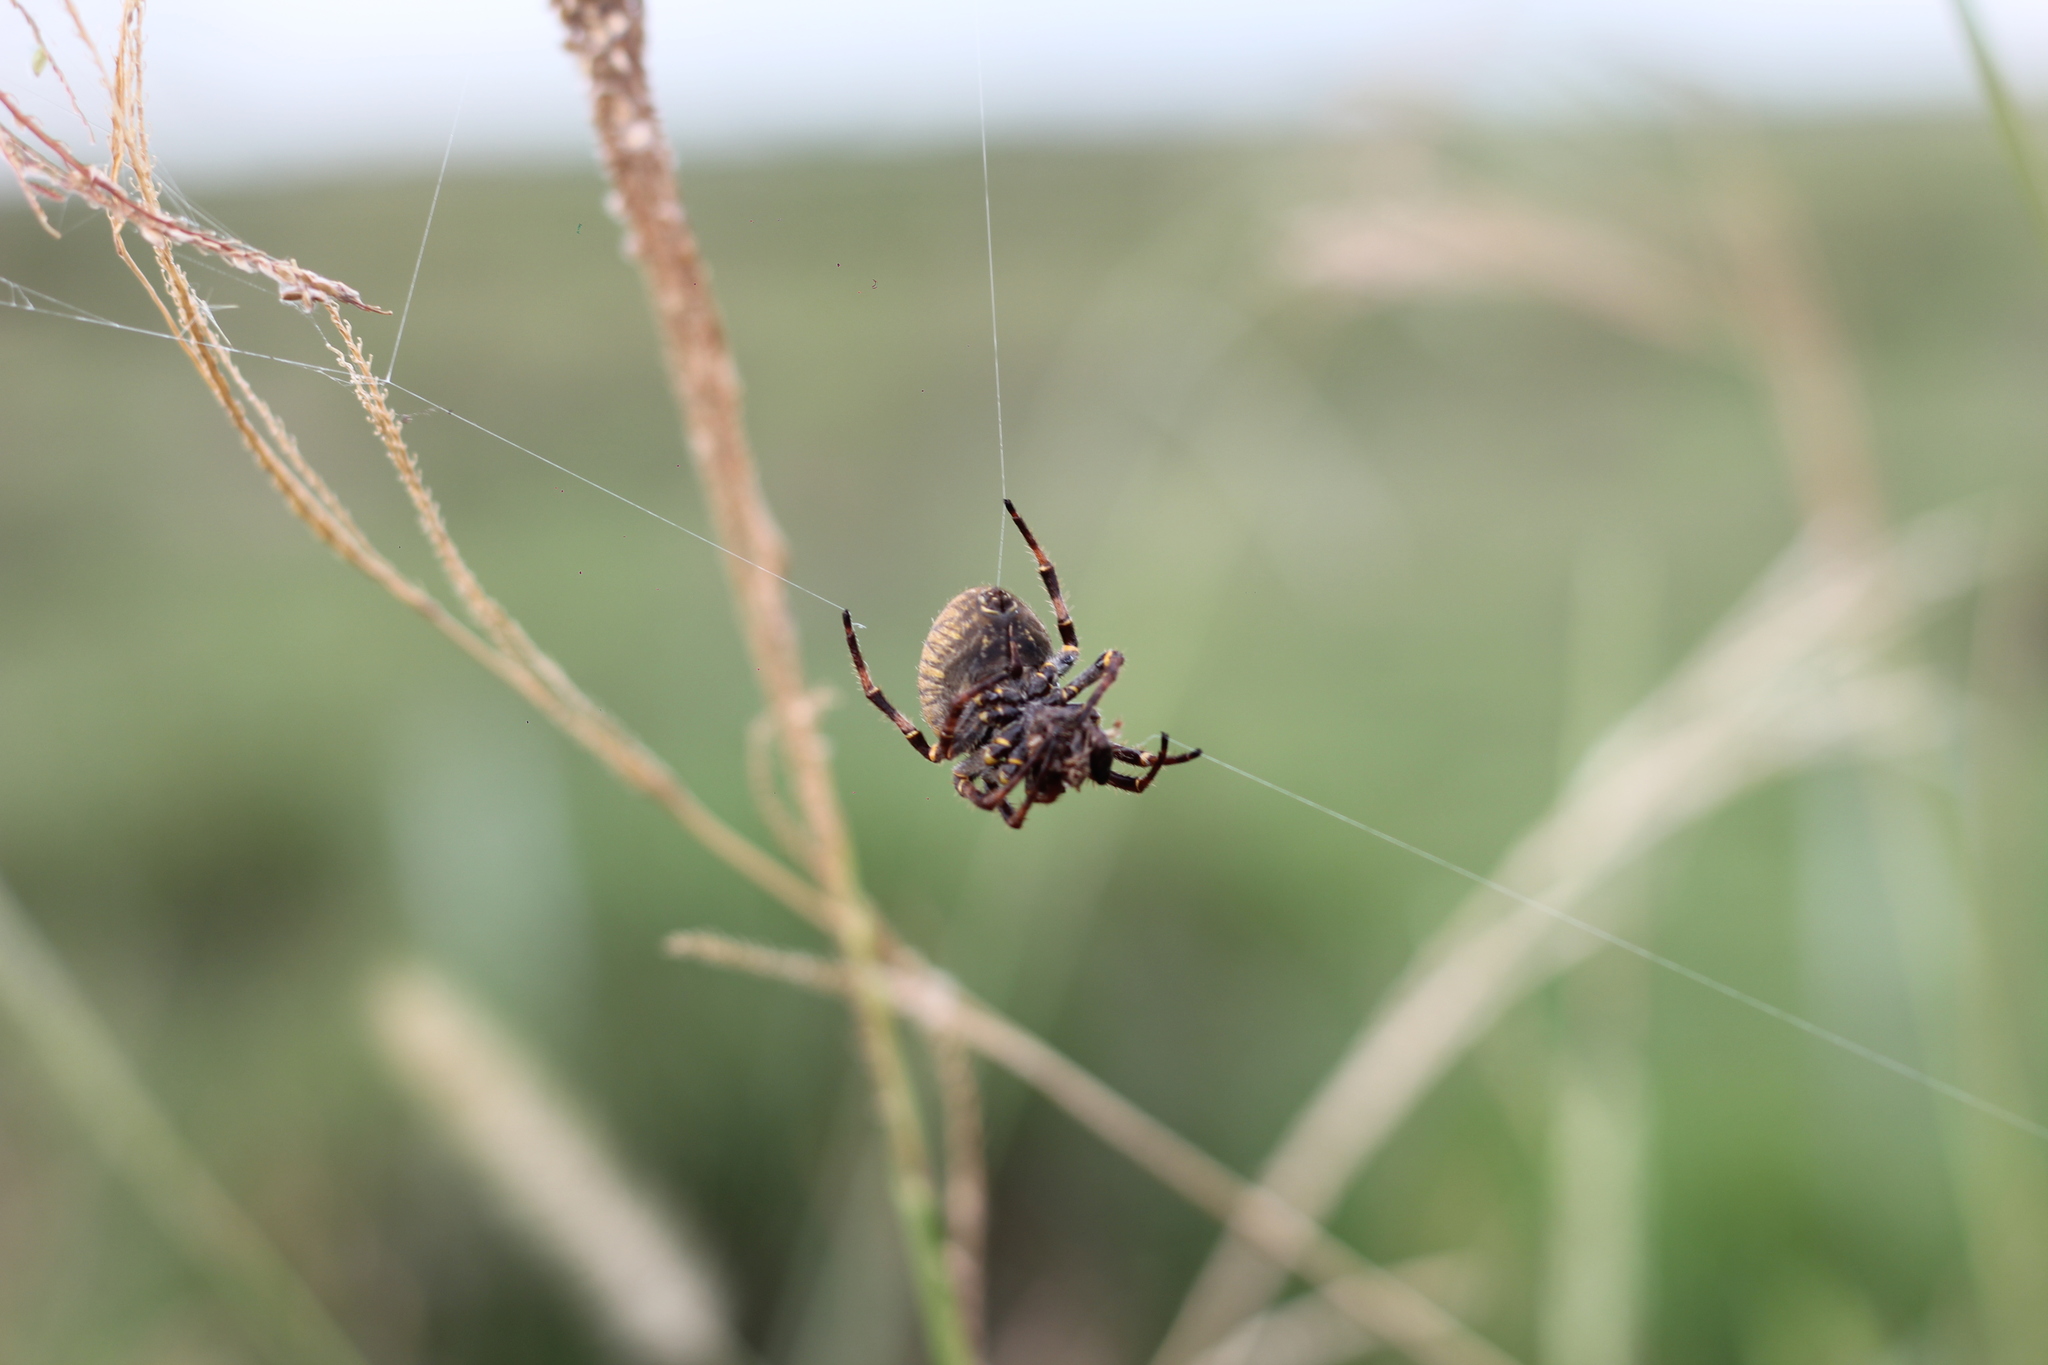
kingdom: Animalia
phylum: Arthropoda
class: Arachnida
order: Araneae
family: Araneidae
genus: Parawixia
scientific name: Parawixia bistriata
